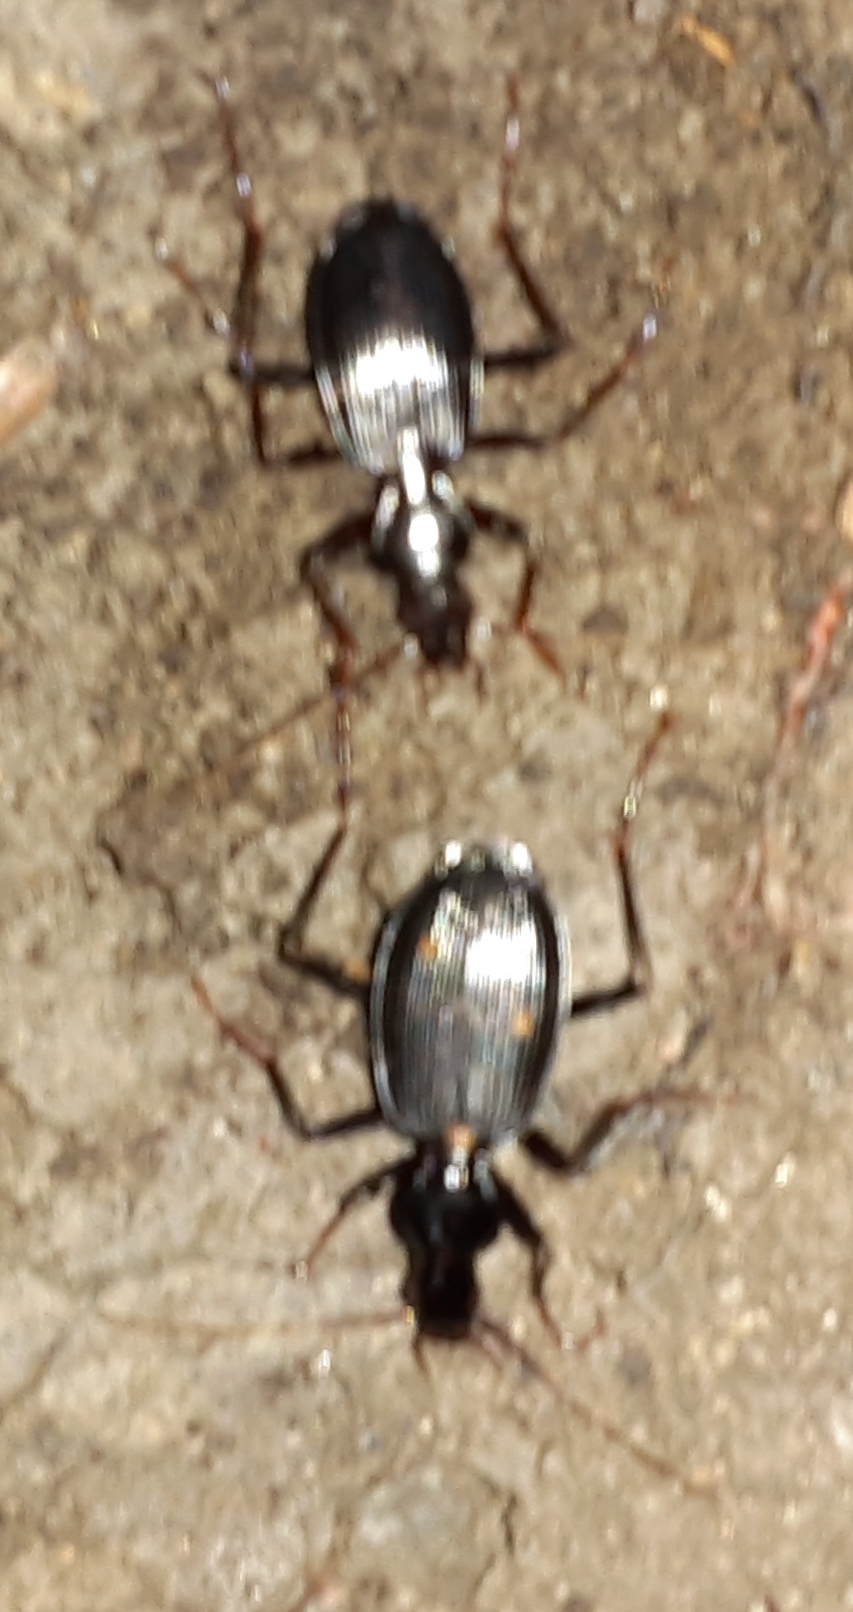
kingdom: Animalia
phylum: Arthropoda
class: Insecta
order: Coleoptera
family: Carabidae
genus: Platynus
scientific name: Platynus angustatus
